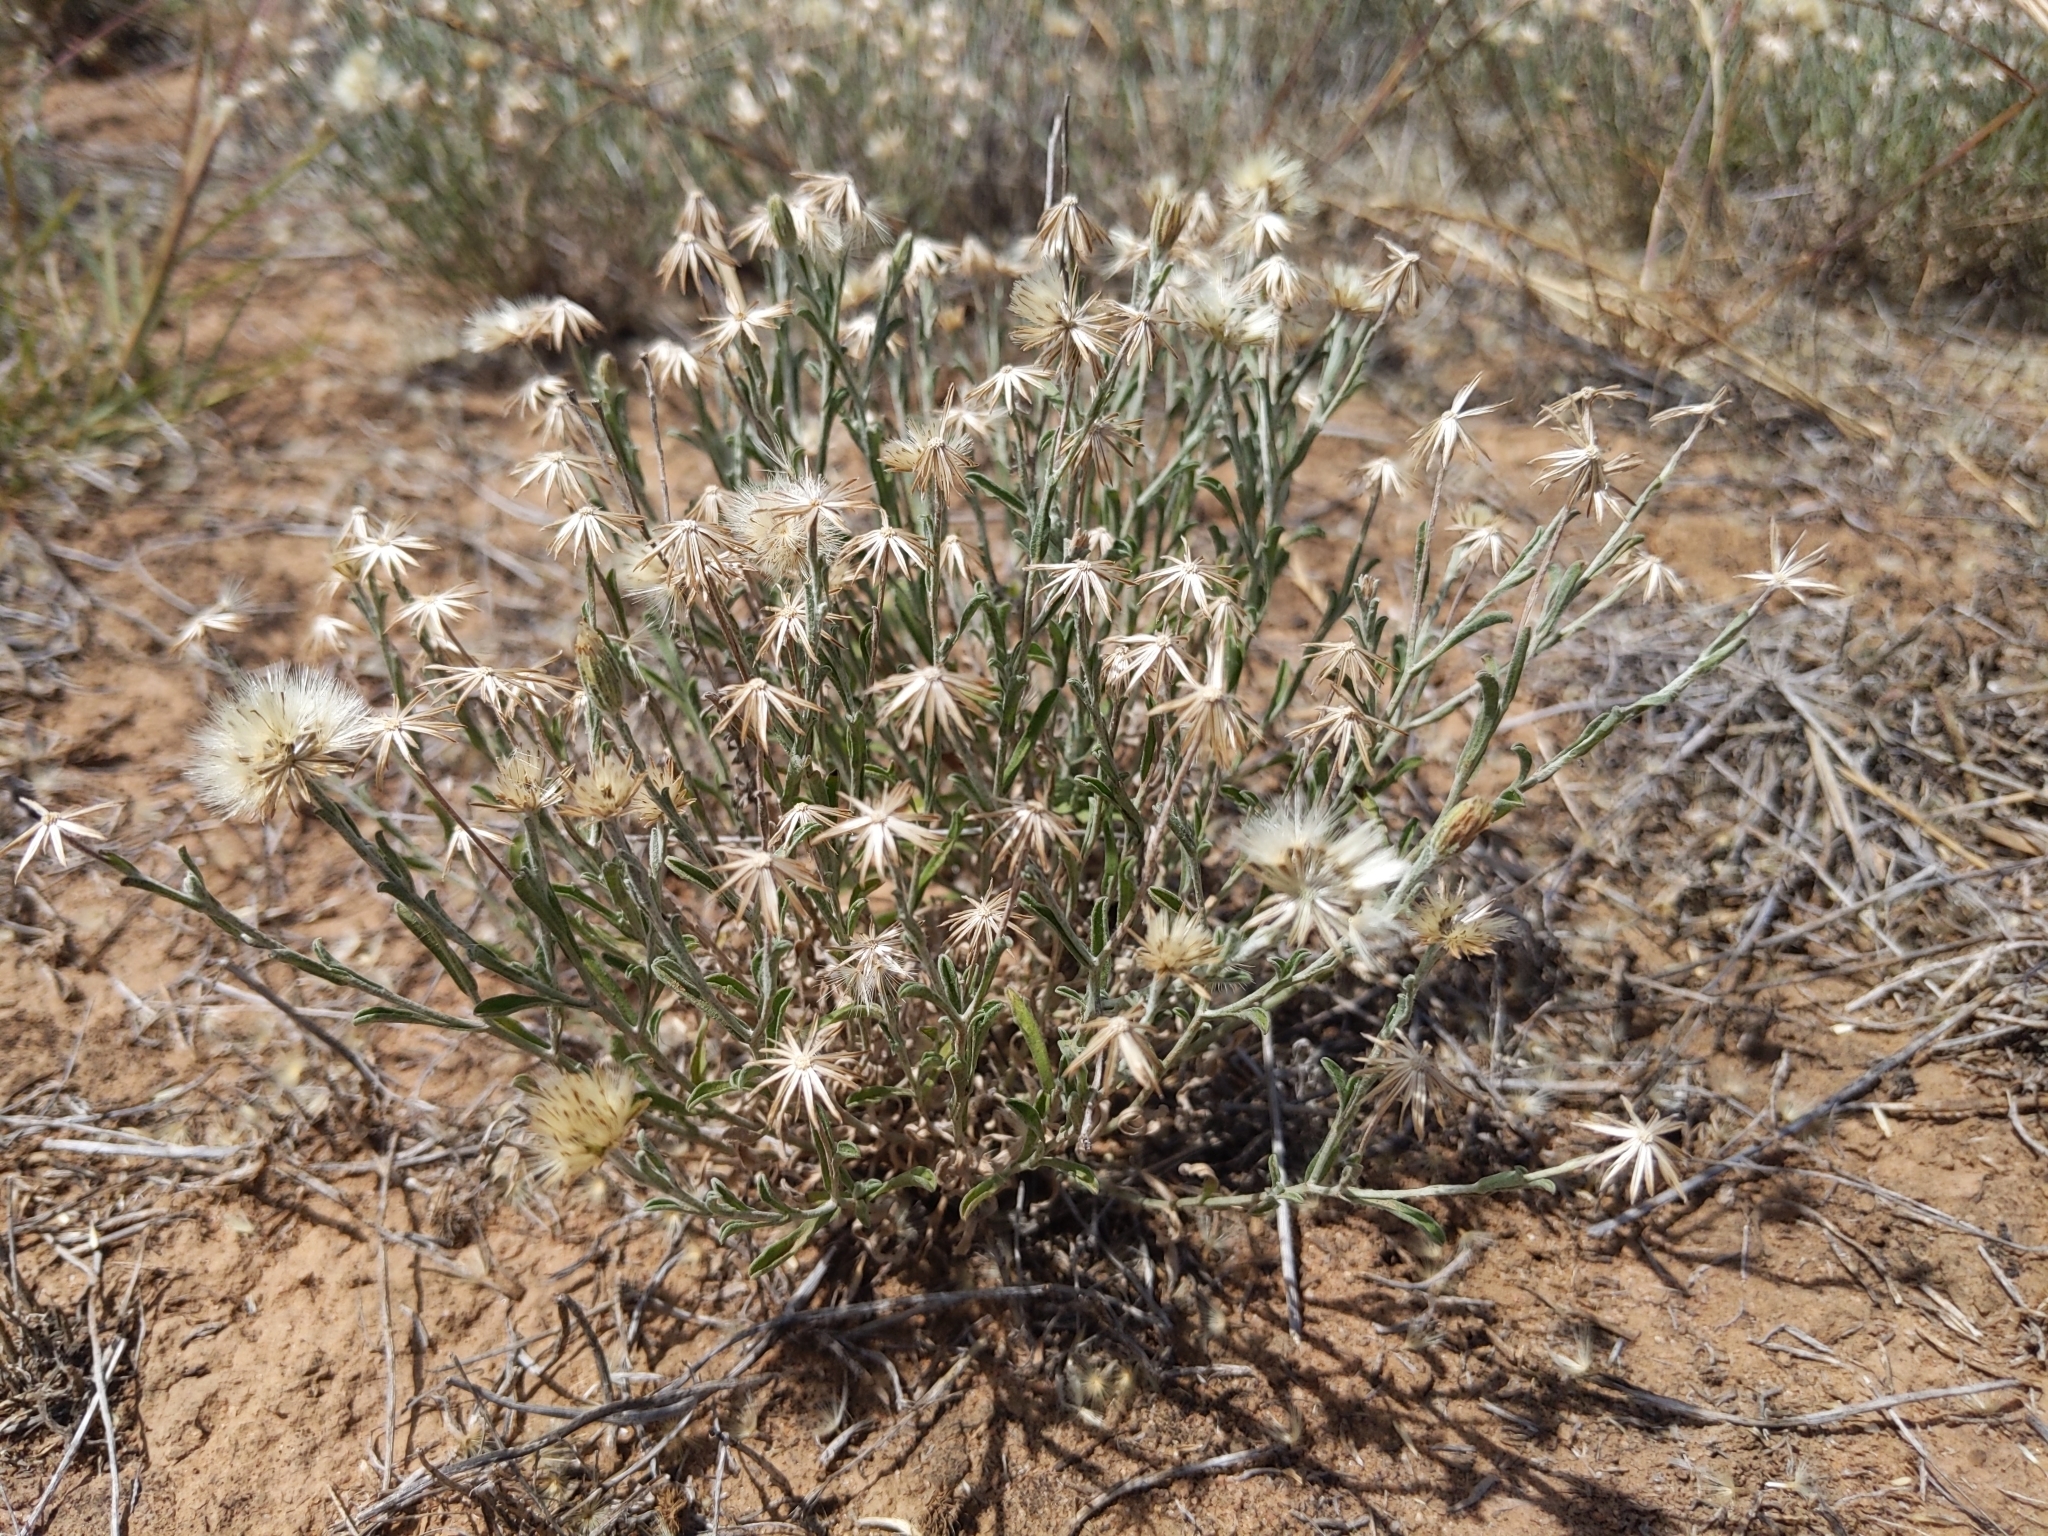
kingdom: Plantae
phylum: Tracheophyta
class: Magnoliopsida
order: Asterales
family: Asteraceae
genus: Vittadinia
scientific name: Vittadinia gracilis
